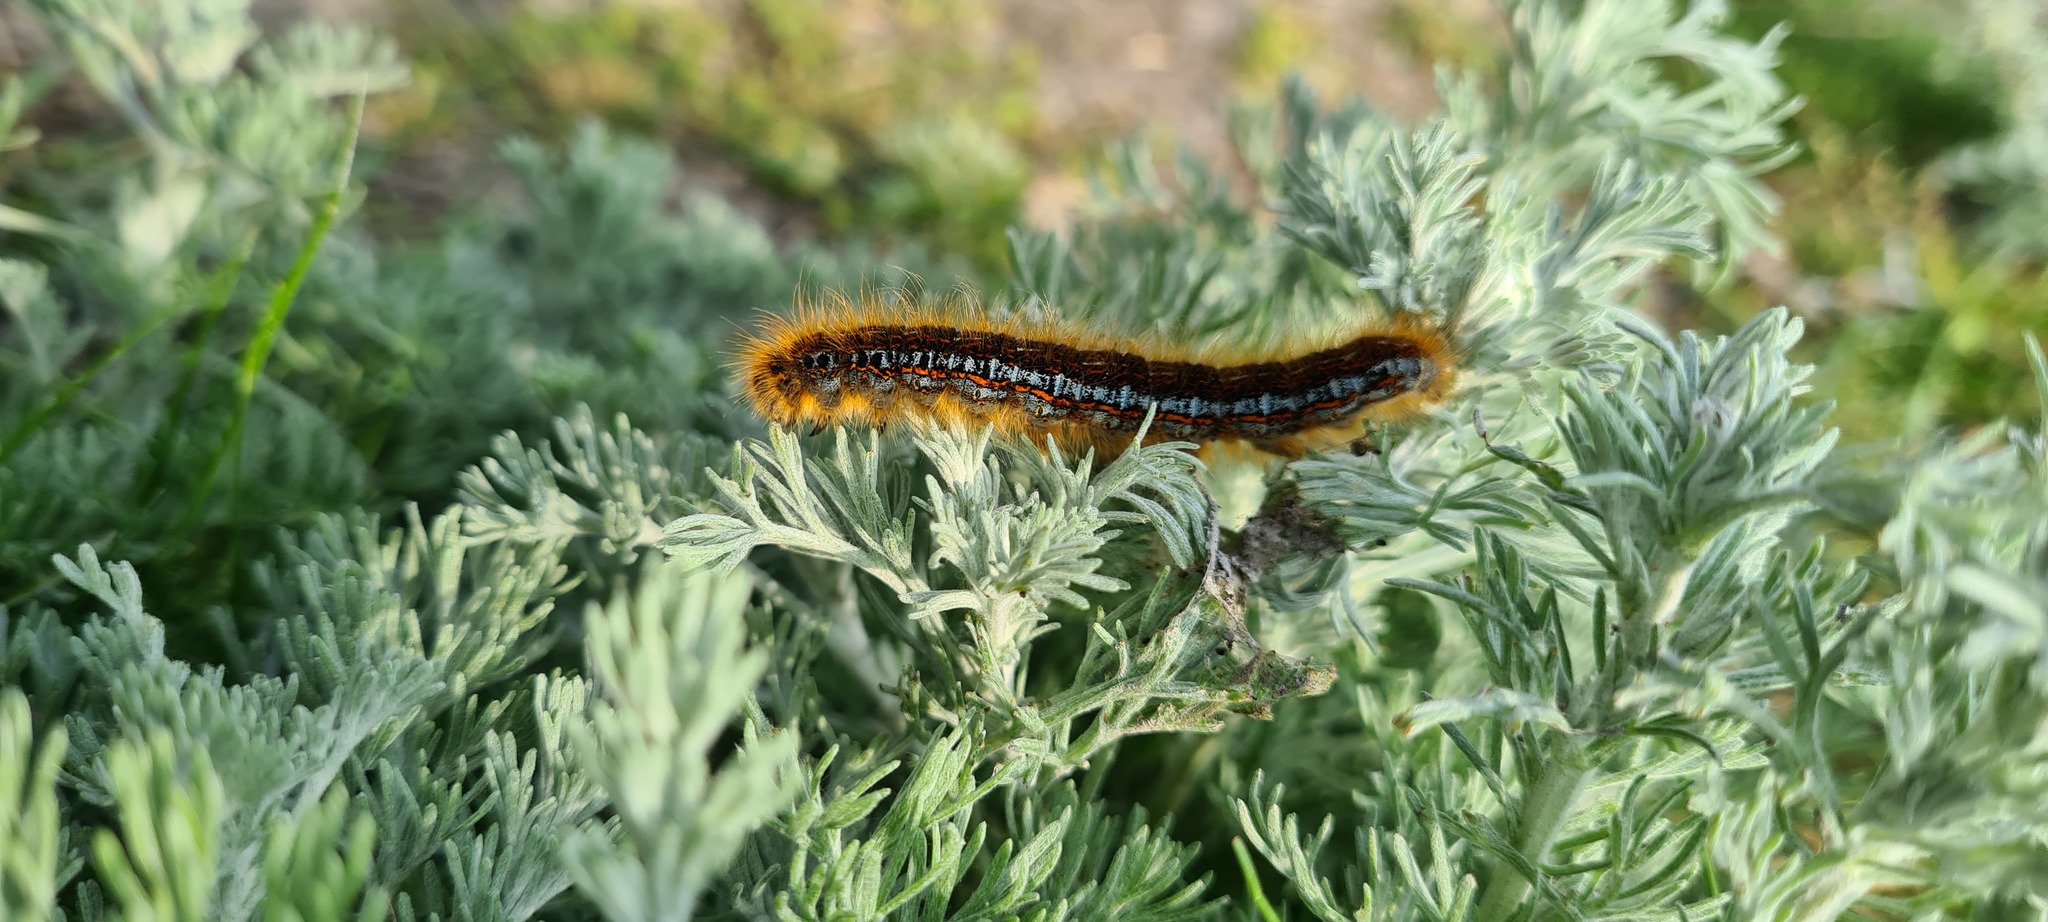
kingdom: Animalia
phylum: Arthropoda
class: Insecta
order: Lepidoptera
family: Lasiocampidae
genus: Malacosoma
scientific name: Malacosoma castrense
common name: Ground lackey
